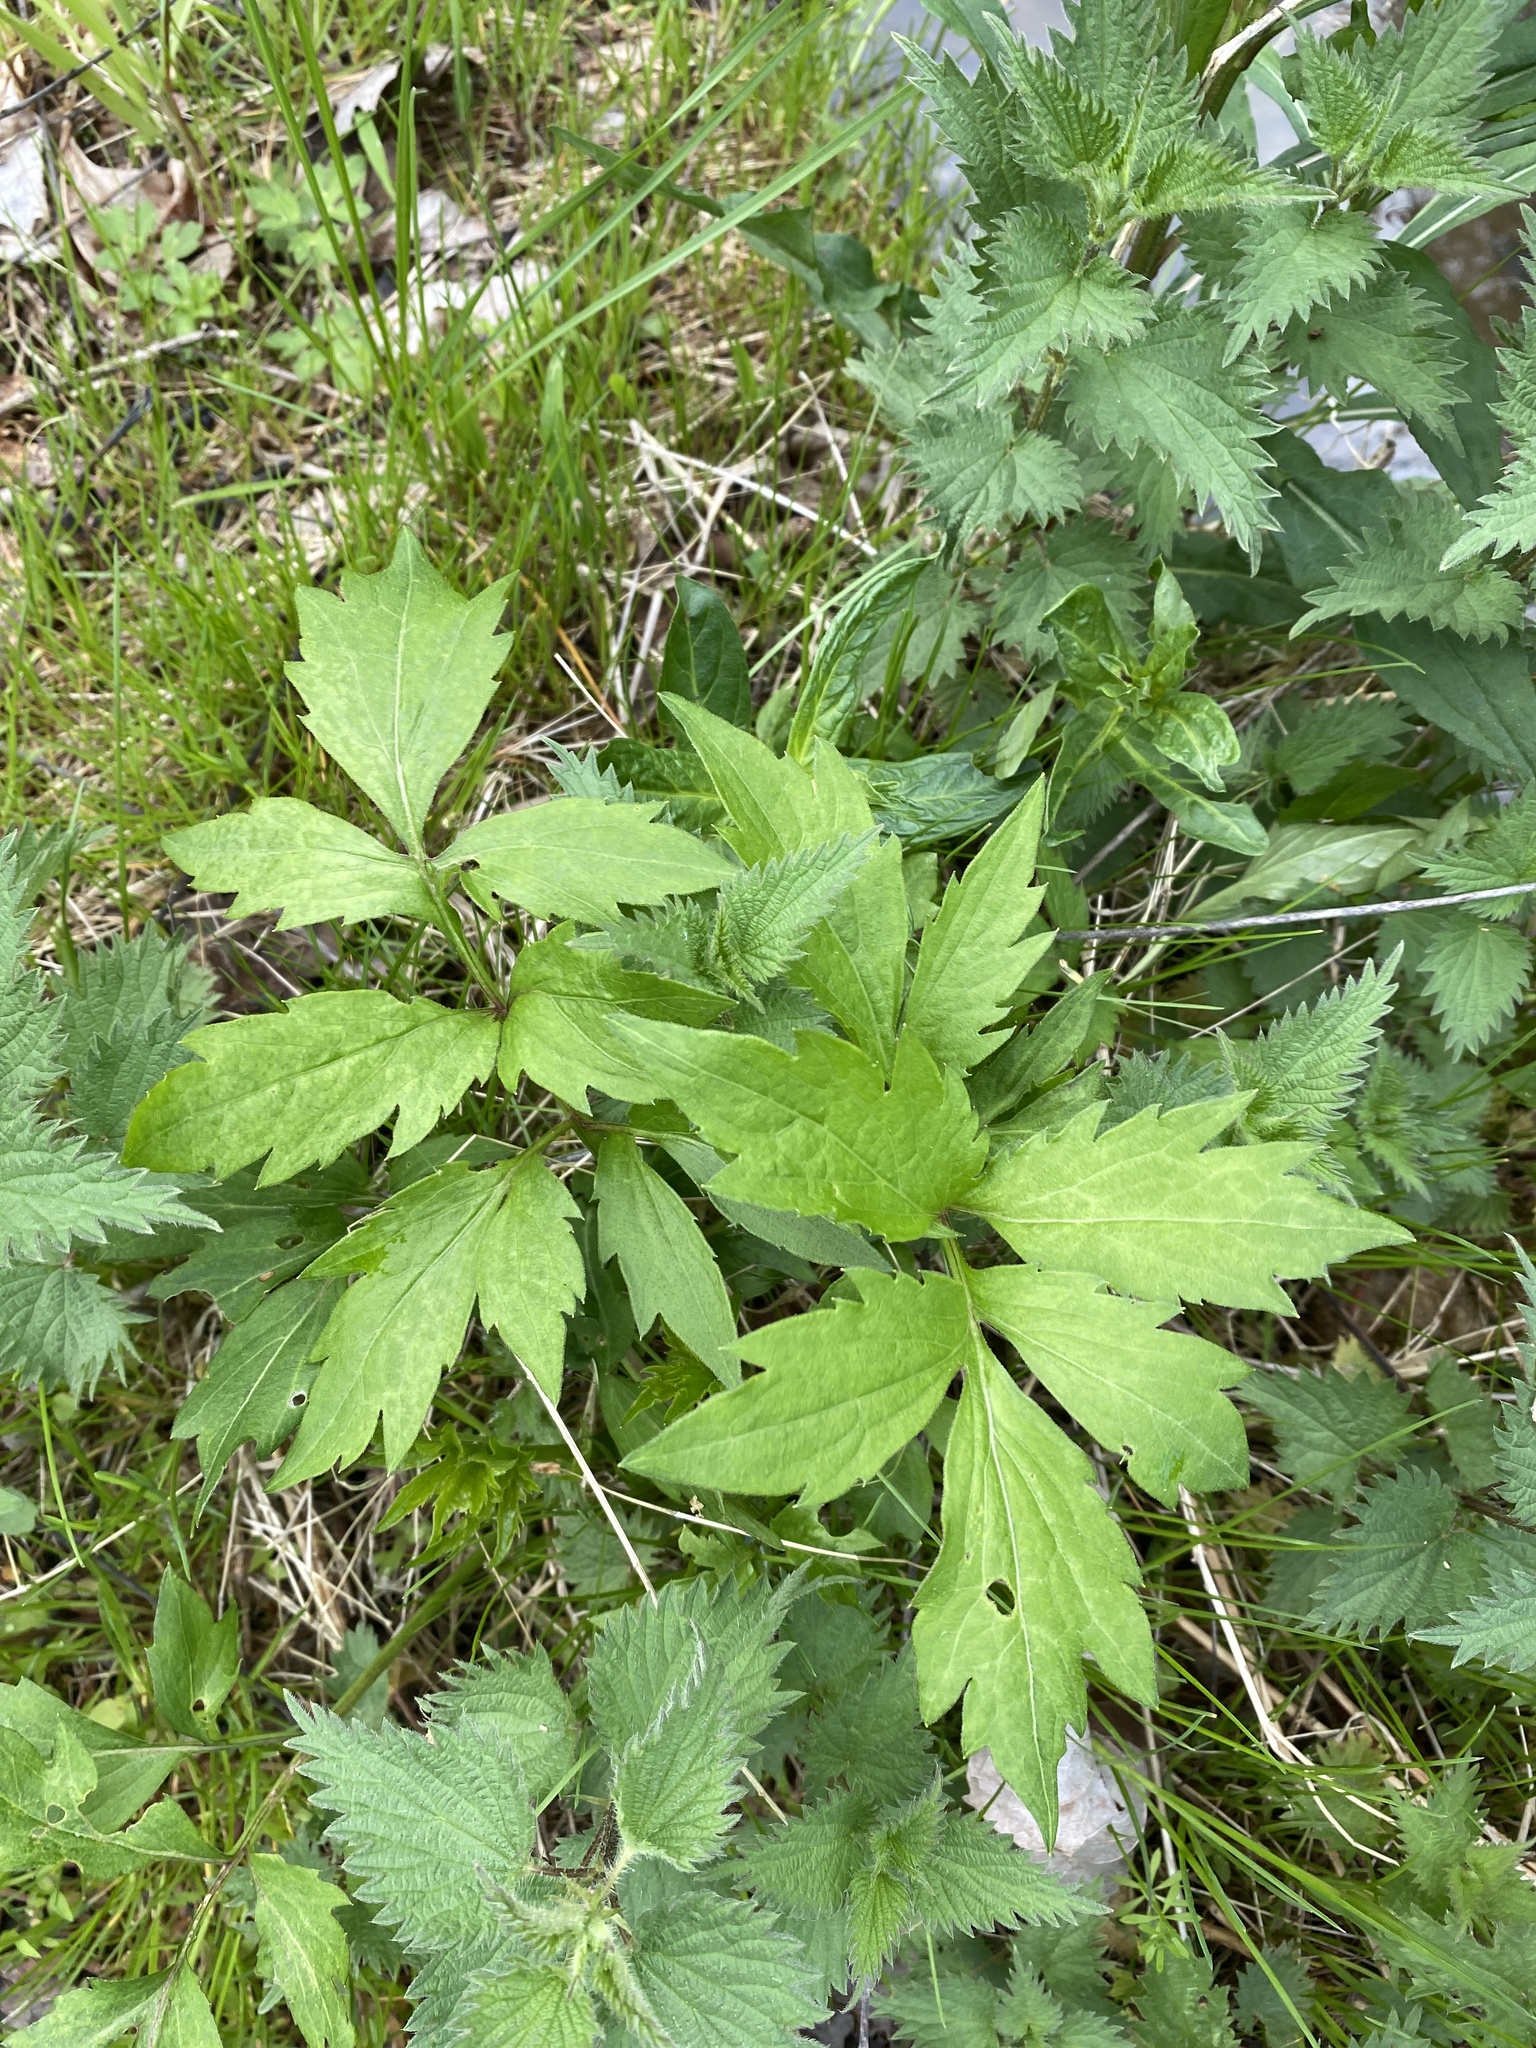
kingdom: Plantae
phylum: Tracheophyta
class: Magnoliopsida
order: Asterales
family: Asteraceae
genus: Rudbeckia
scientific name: Rudbeckia laciniata
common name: Coneflower
